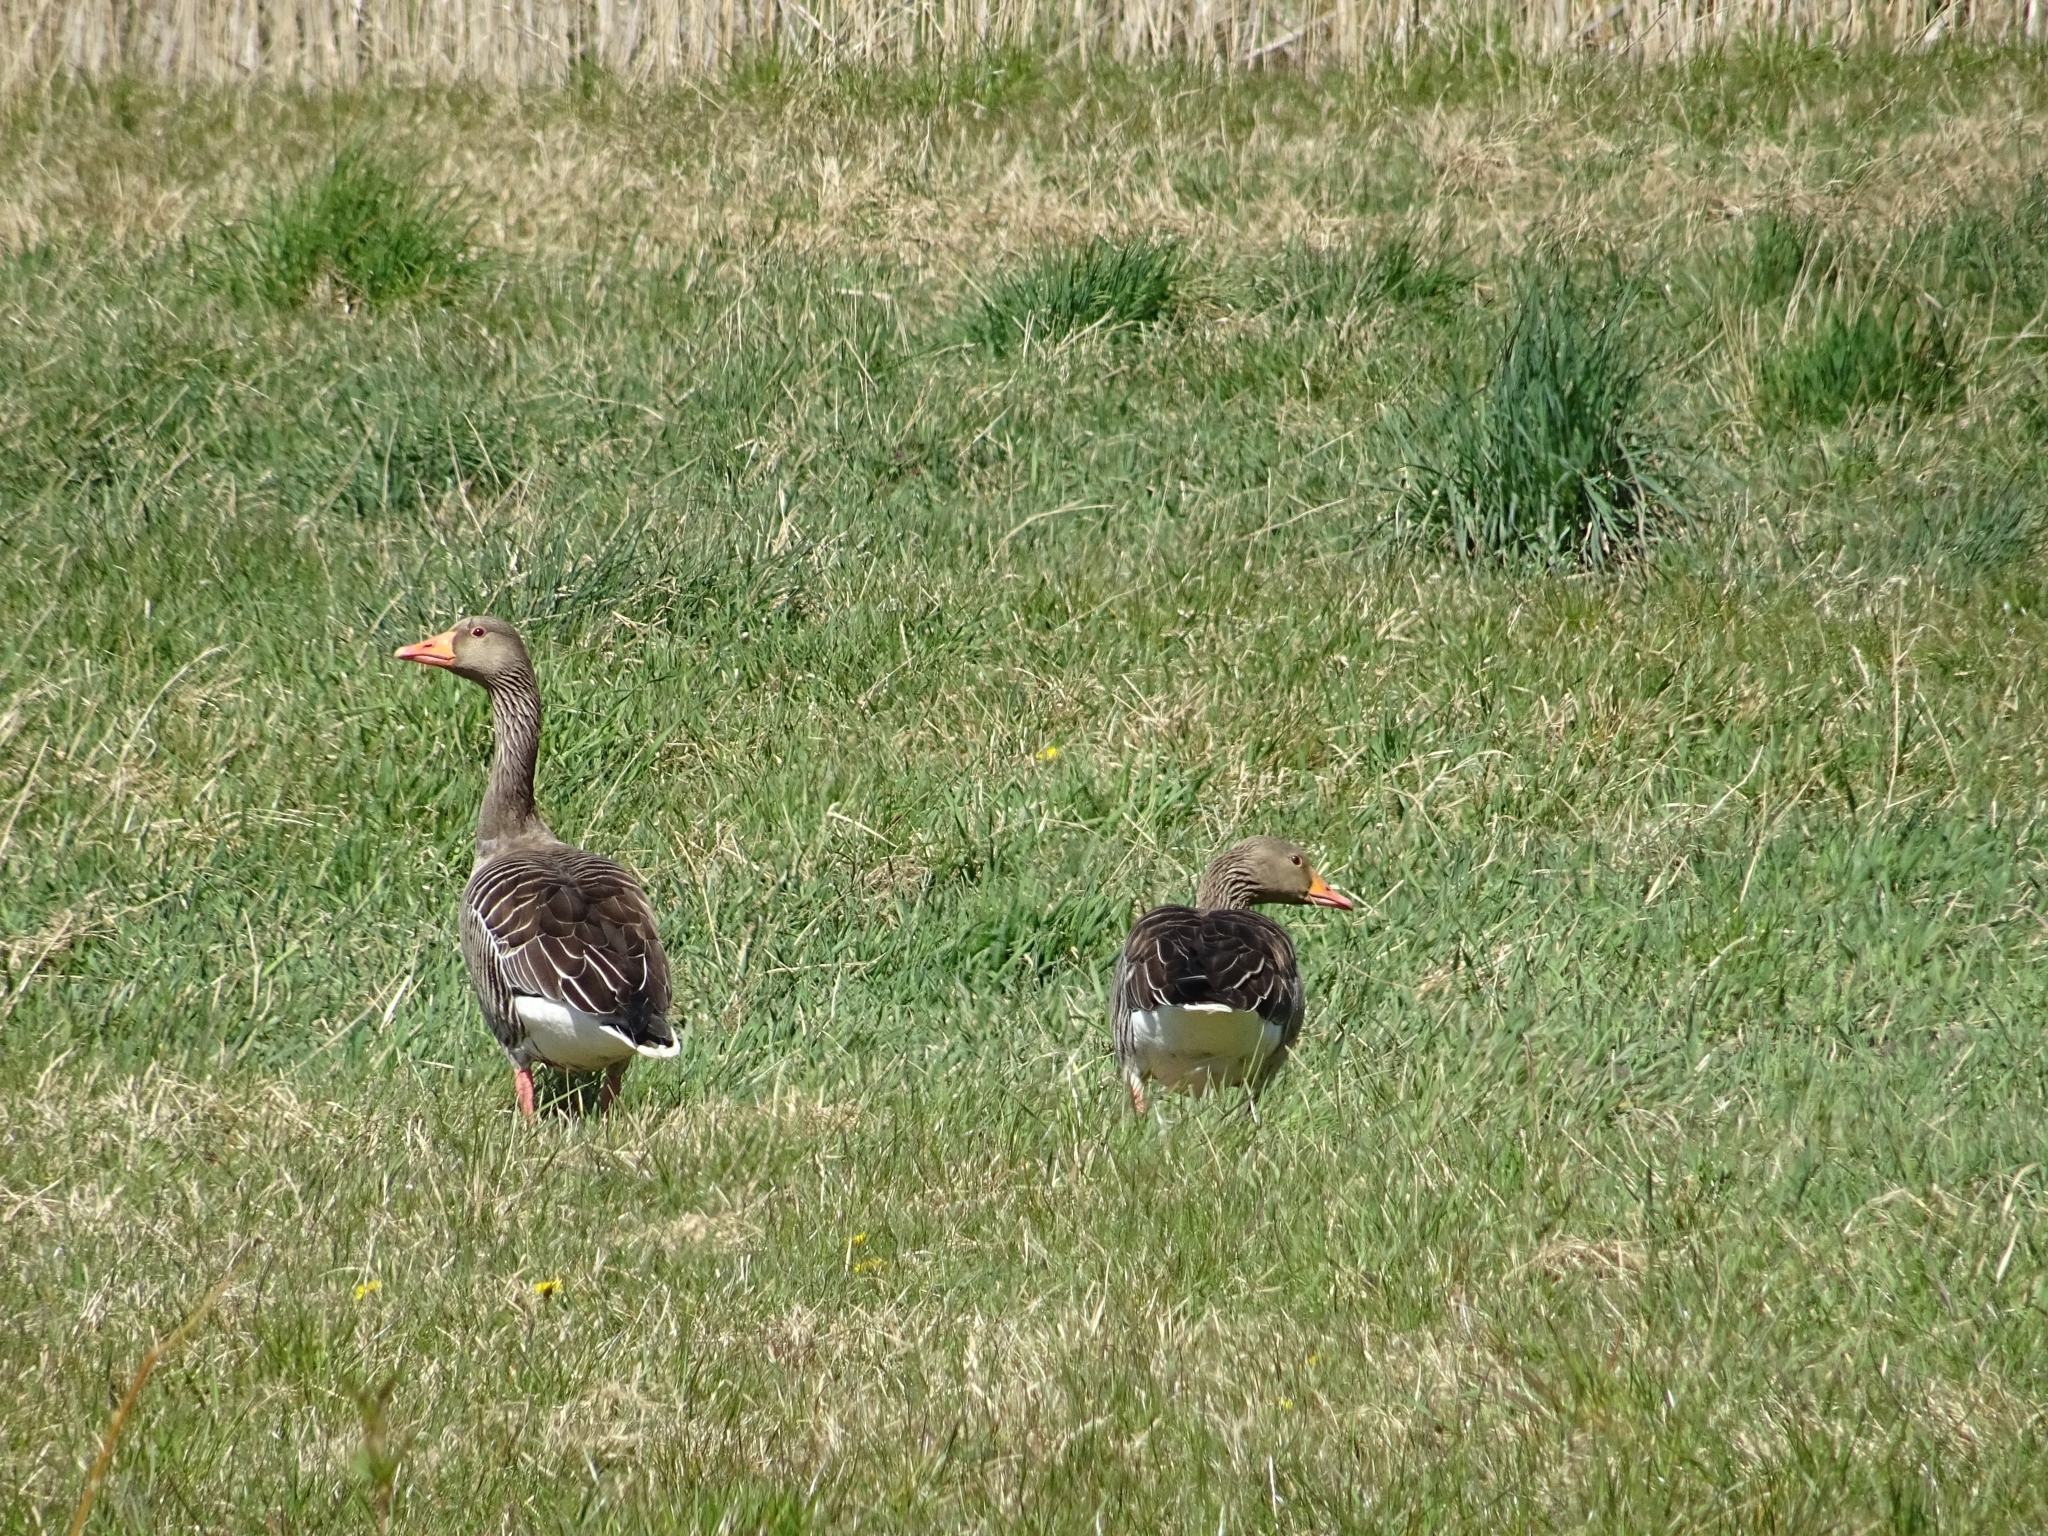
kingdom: Animalia
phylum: Chordata
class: Aves
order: Anseriformes
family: Anatidae
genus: Anser
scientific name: Anser anser
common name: Greylag goose
